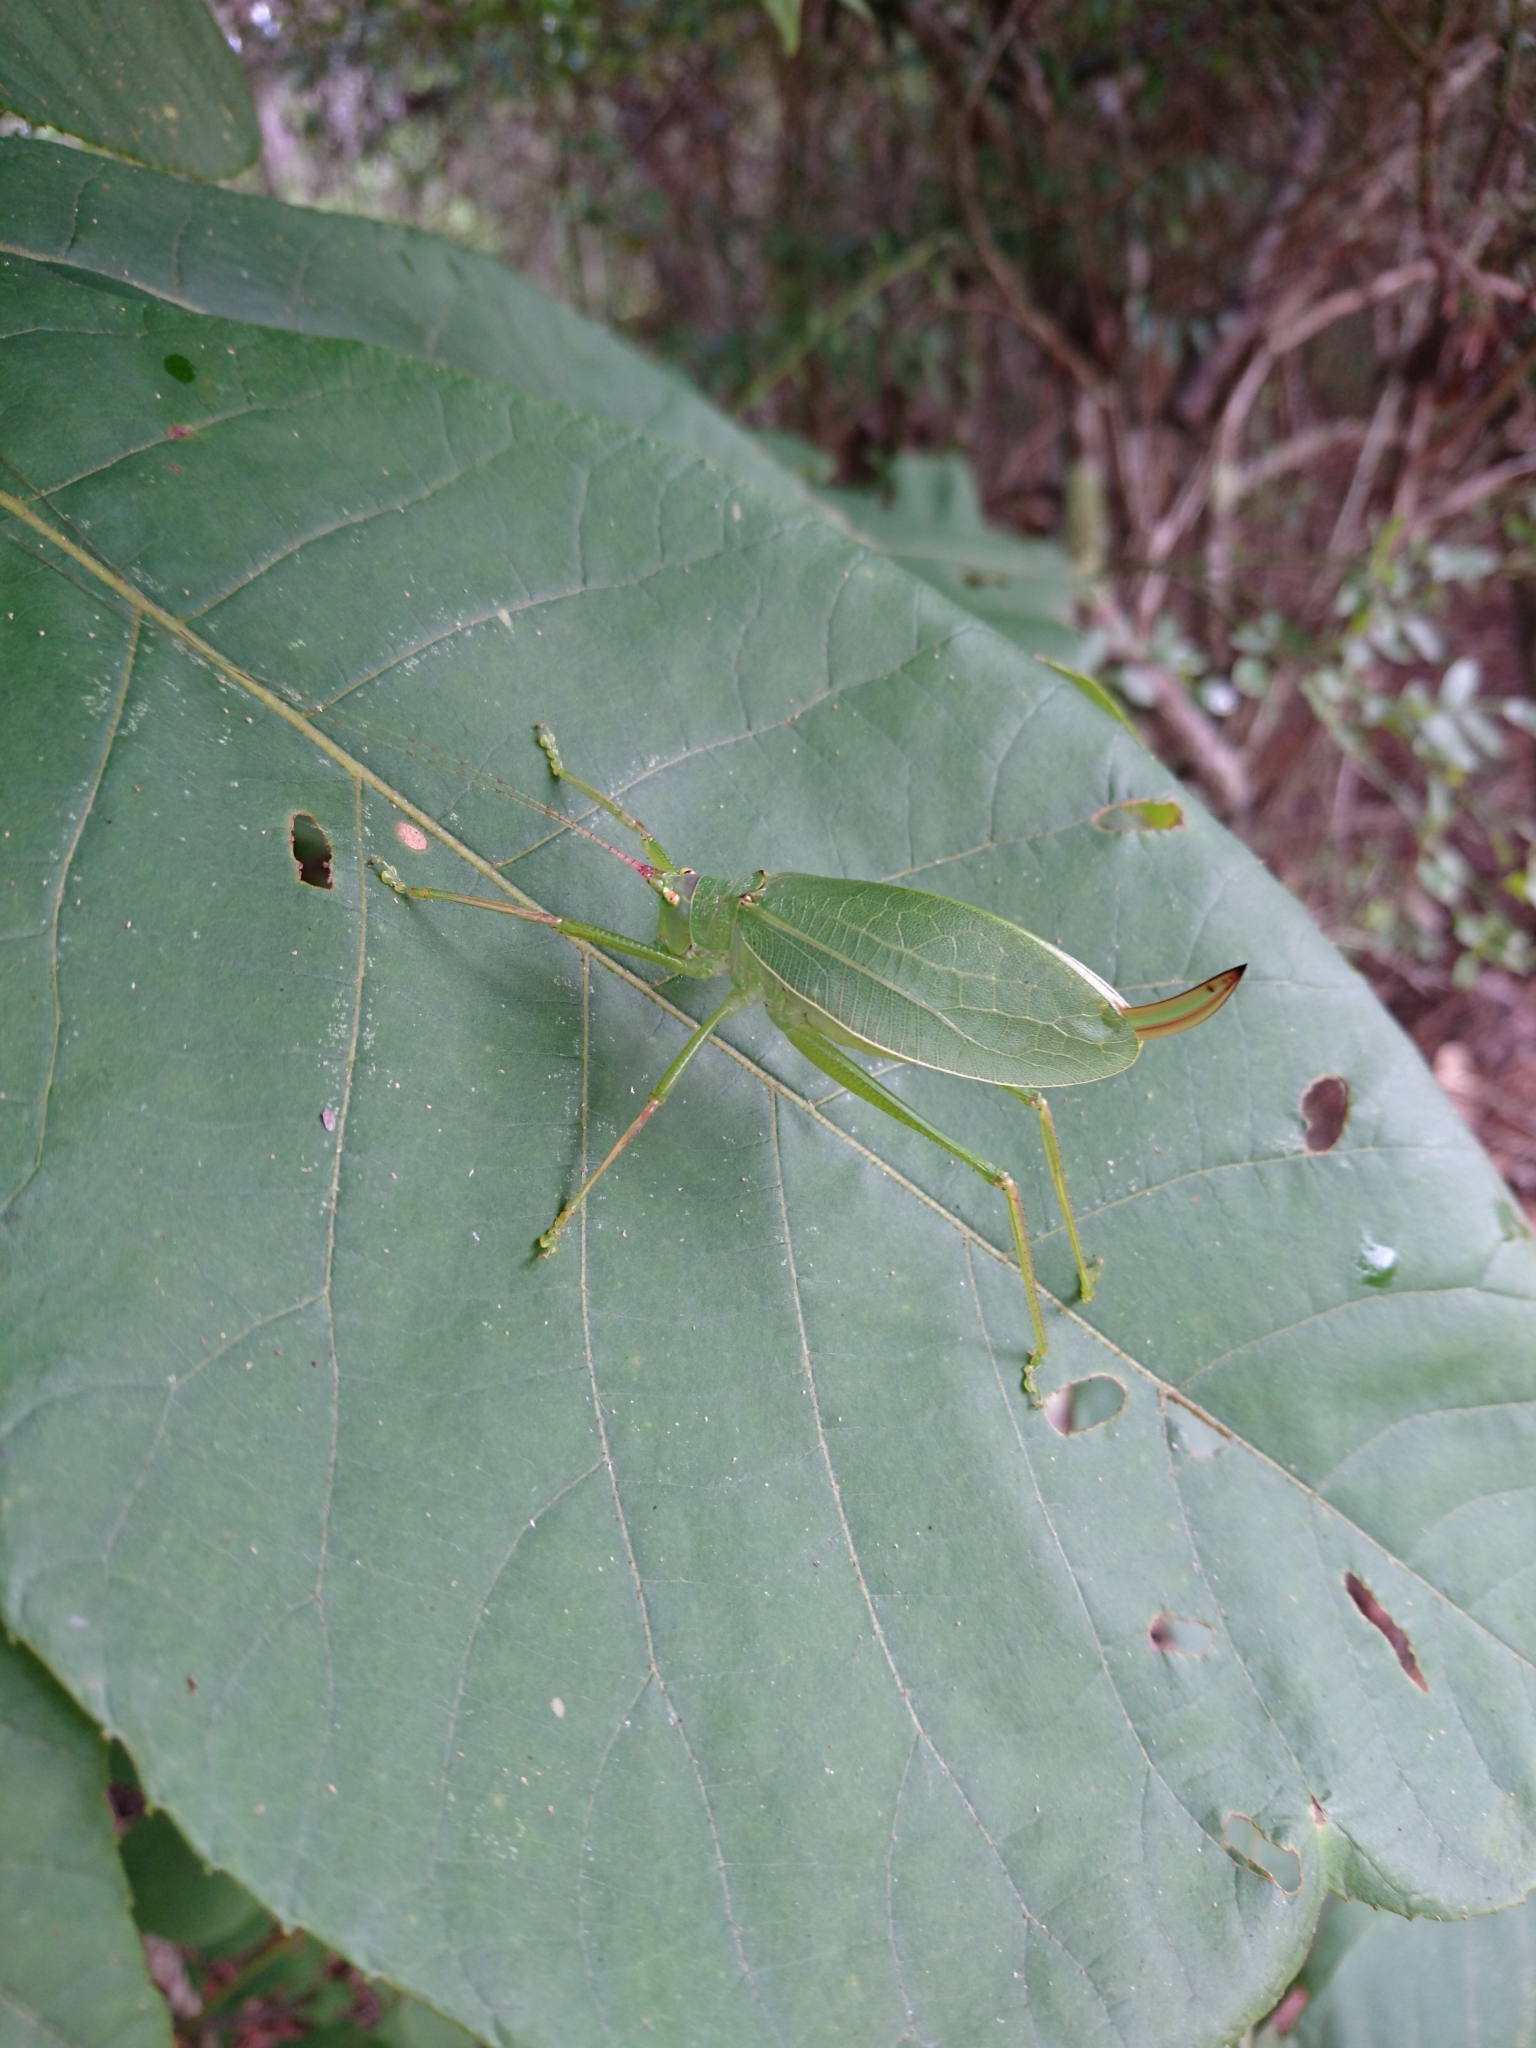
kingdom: Animalia
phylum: Arthropoda
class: Insecta
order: Orthoptera
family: Tettigoniidae
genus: Pterophylla
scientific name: Pterophylla camellifolia
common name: Common true katydid
